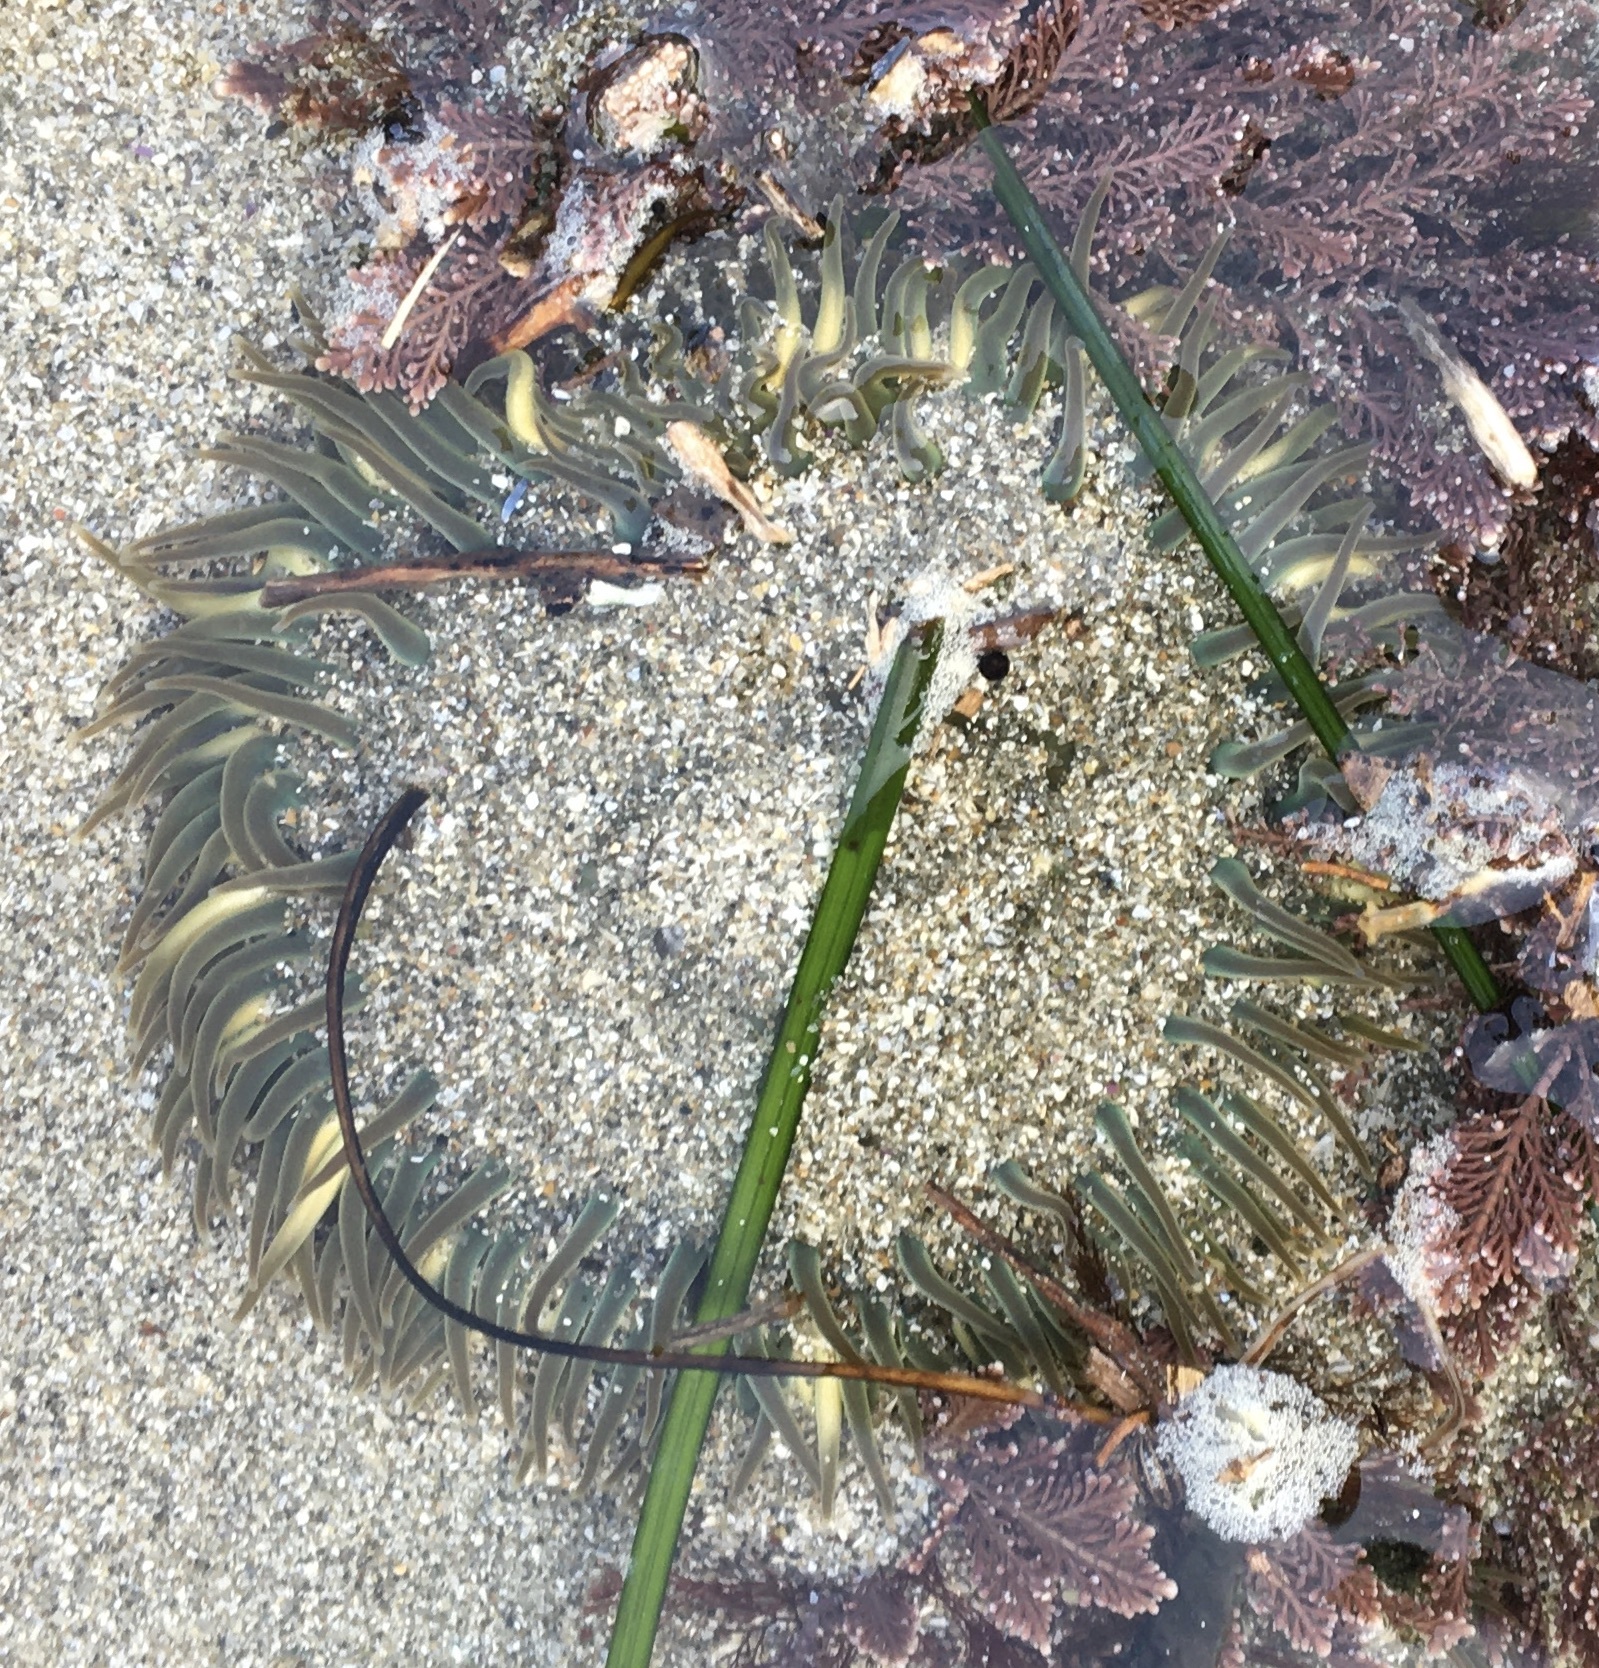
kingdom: Animalia
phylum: Cnidaria
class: Anthozoa
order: Actiniaria
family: Actiniidae
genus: Anthopleura
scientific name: Anthopleura sola
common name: Sun anemone
